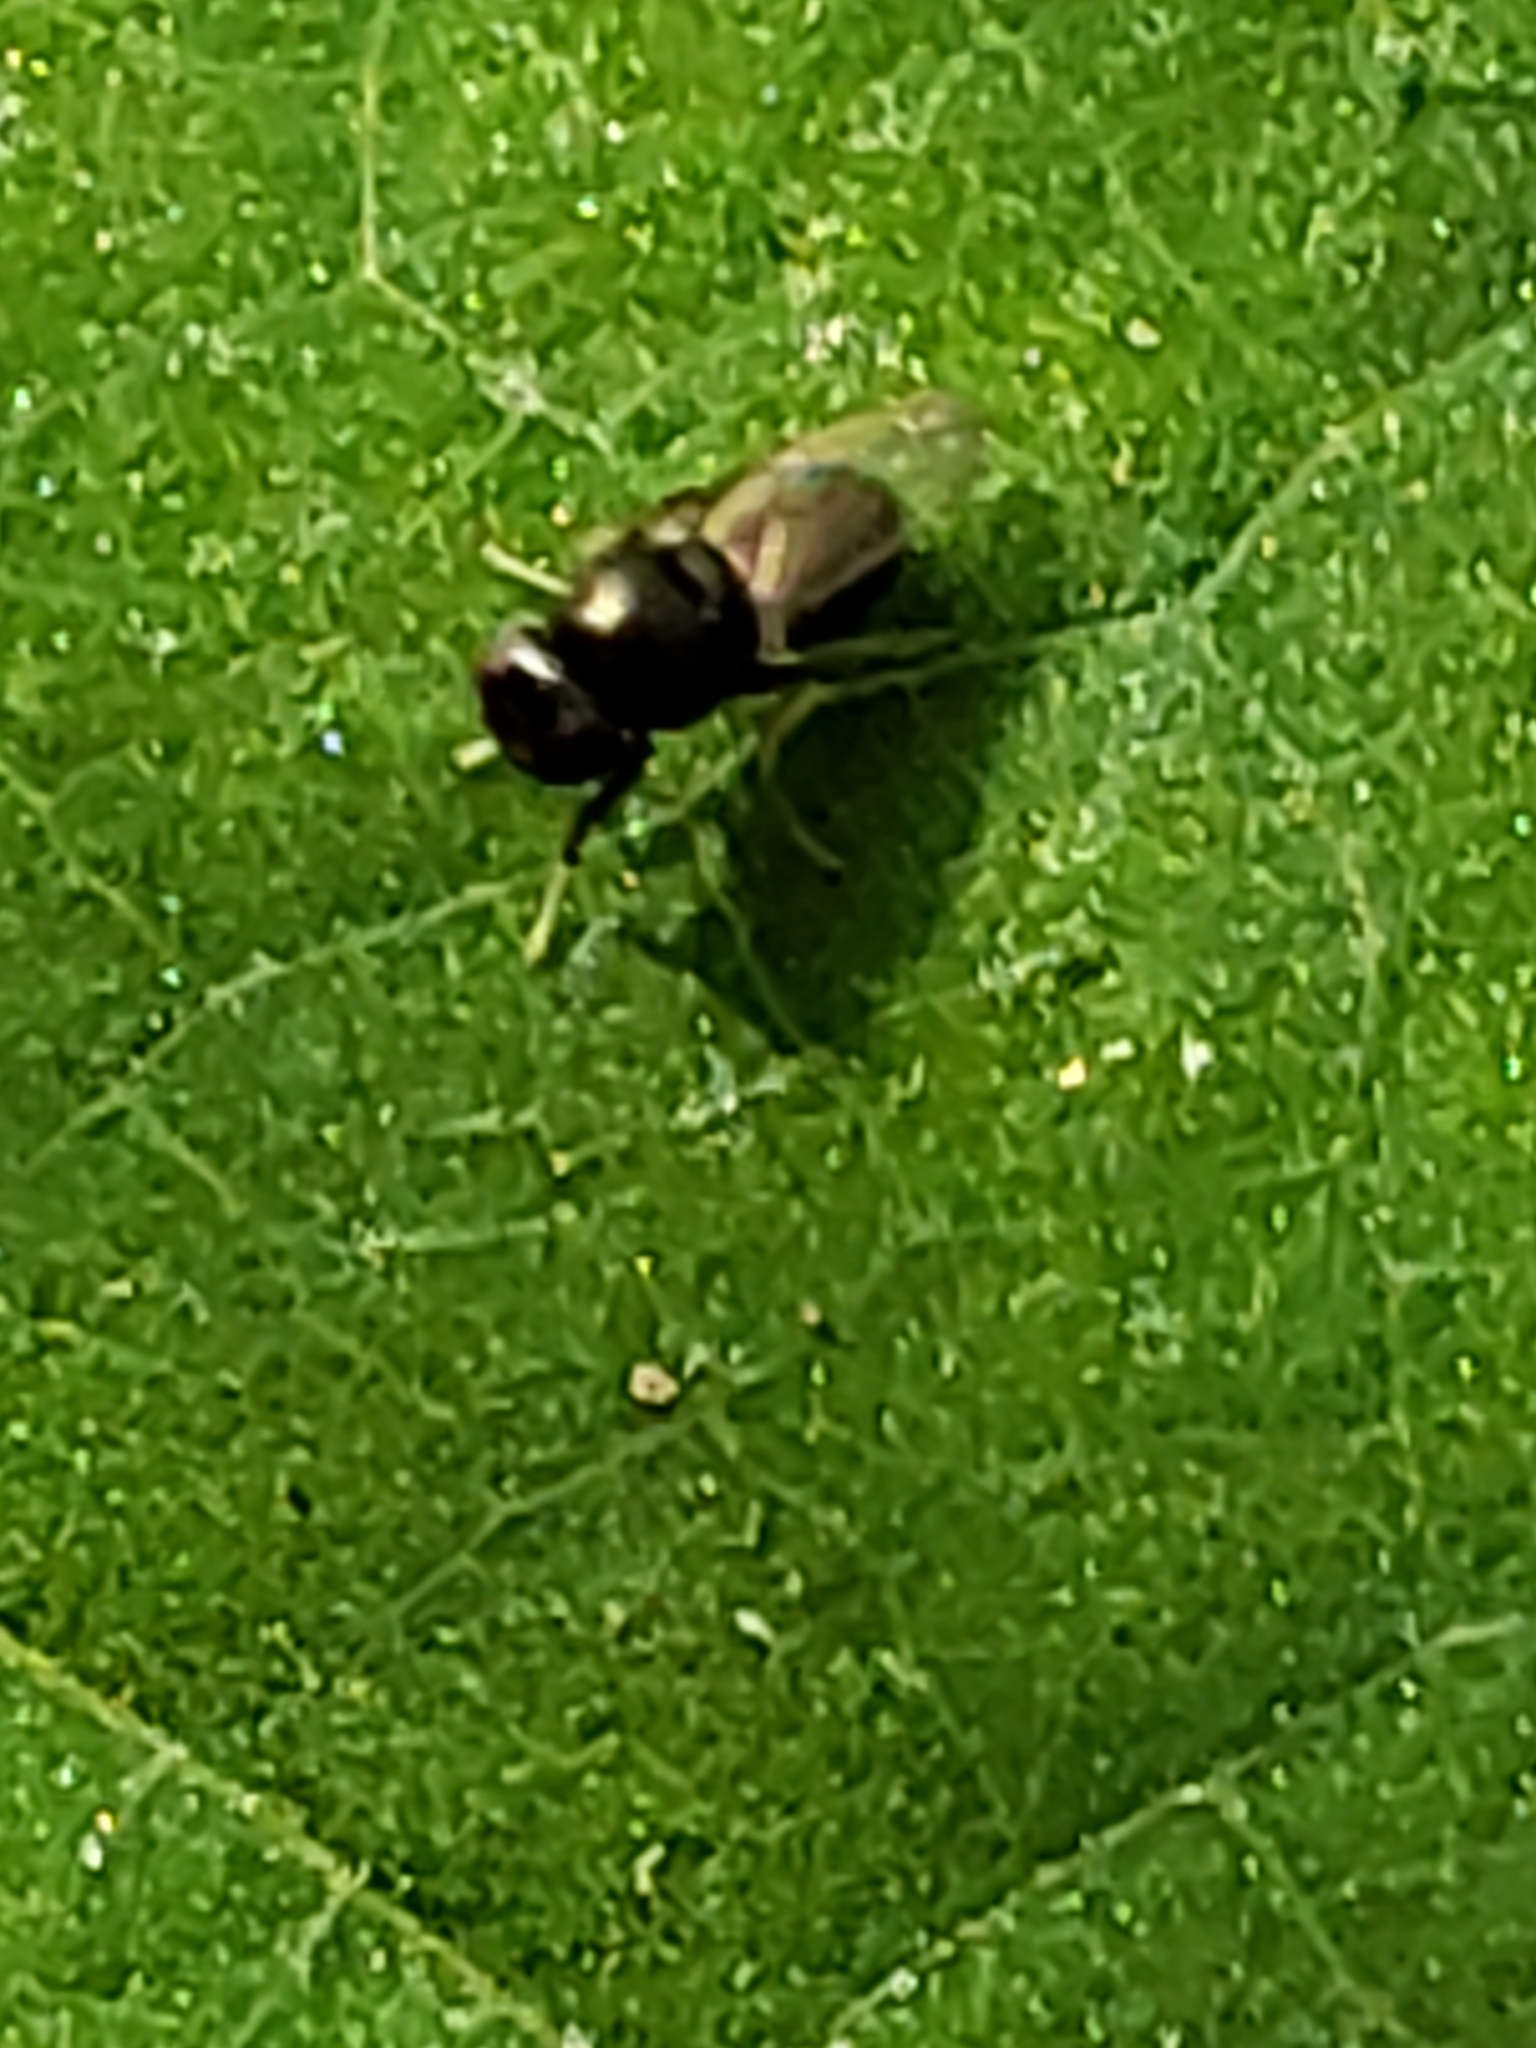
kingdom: Animalia
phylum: Arthropoda
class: Insecta
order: Diptera
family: Ephydridae
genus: Athyroglossa
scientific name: Athyroglossa glaphyropus
